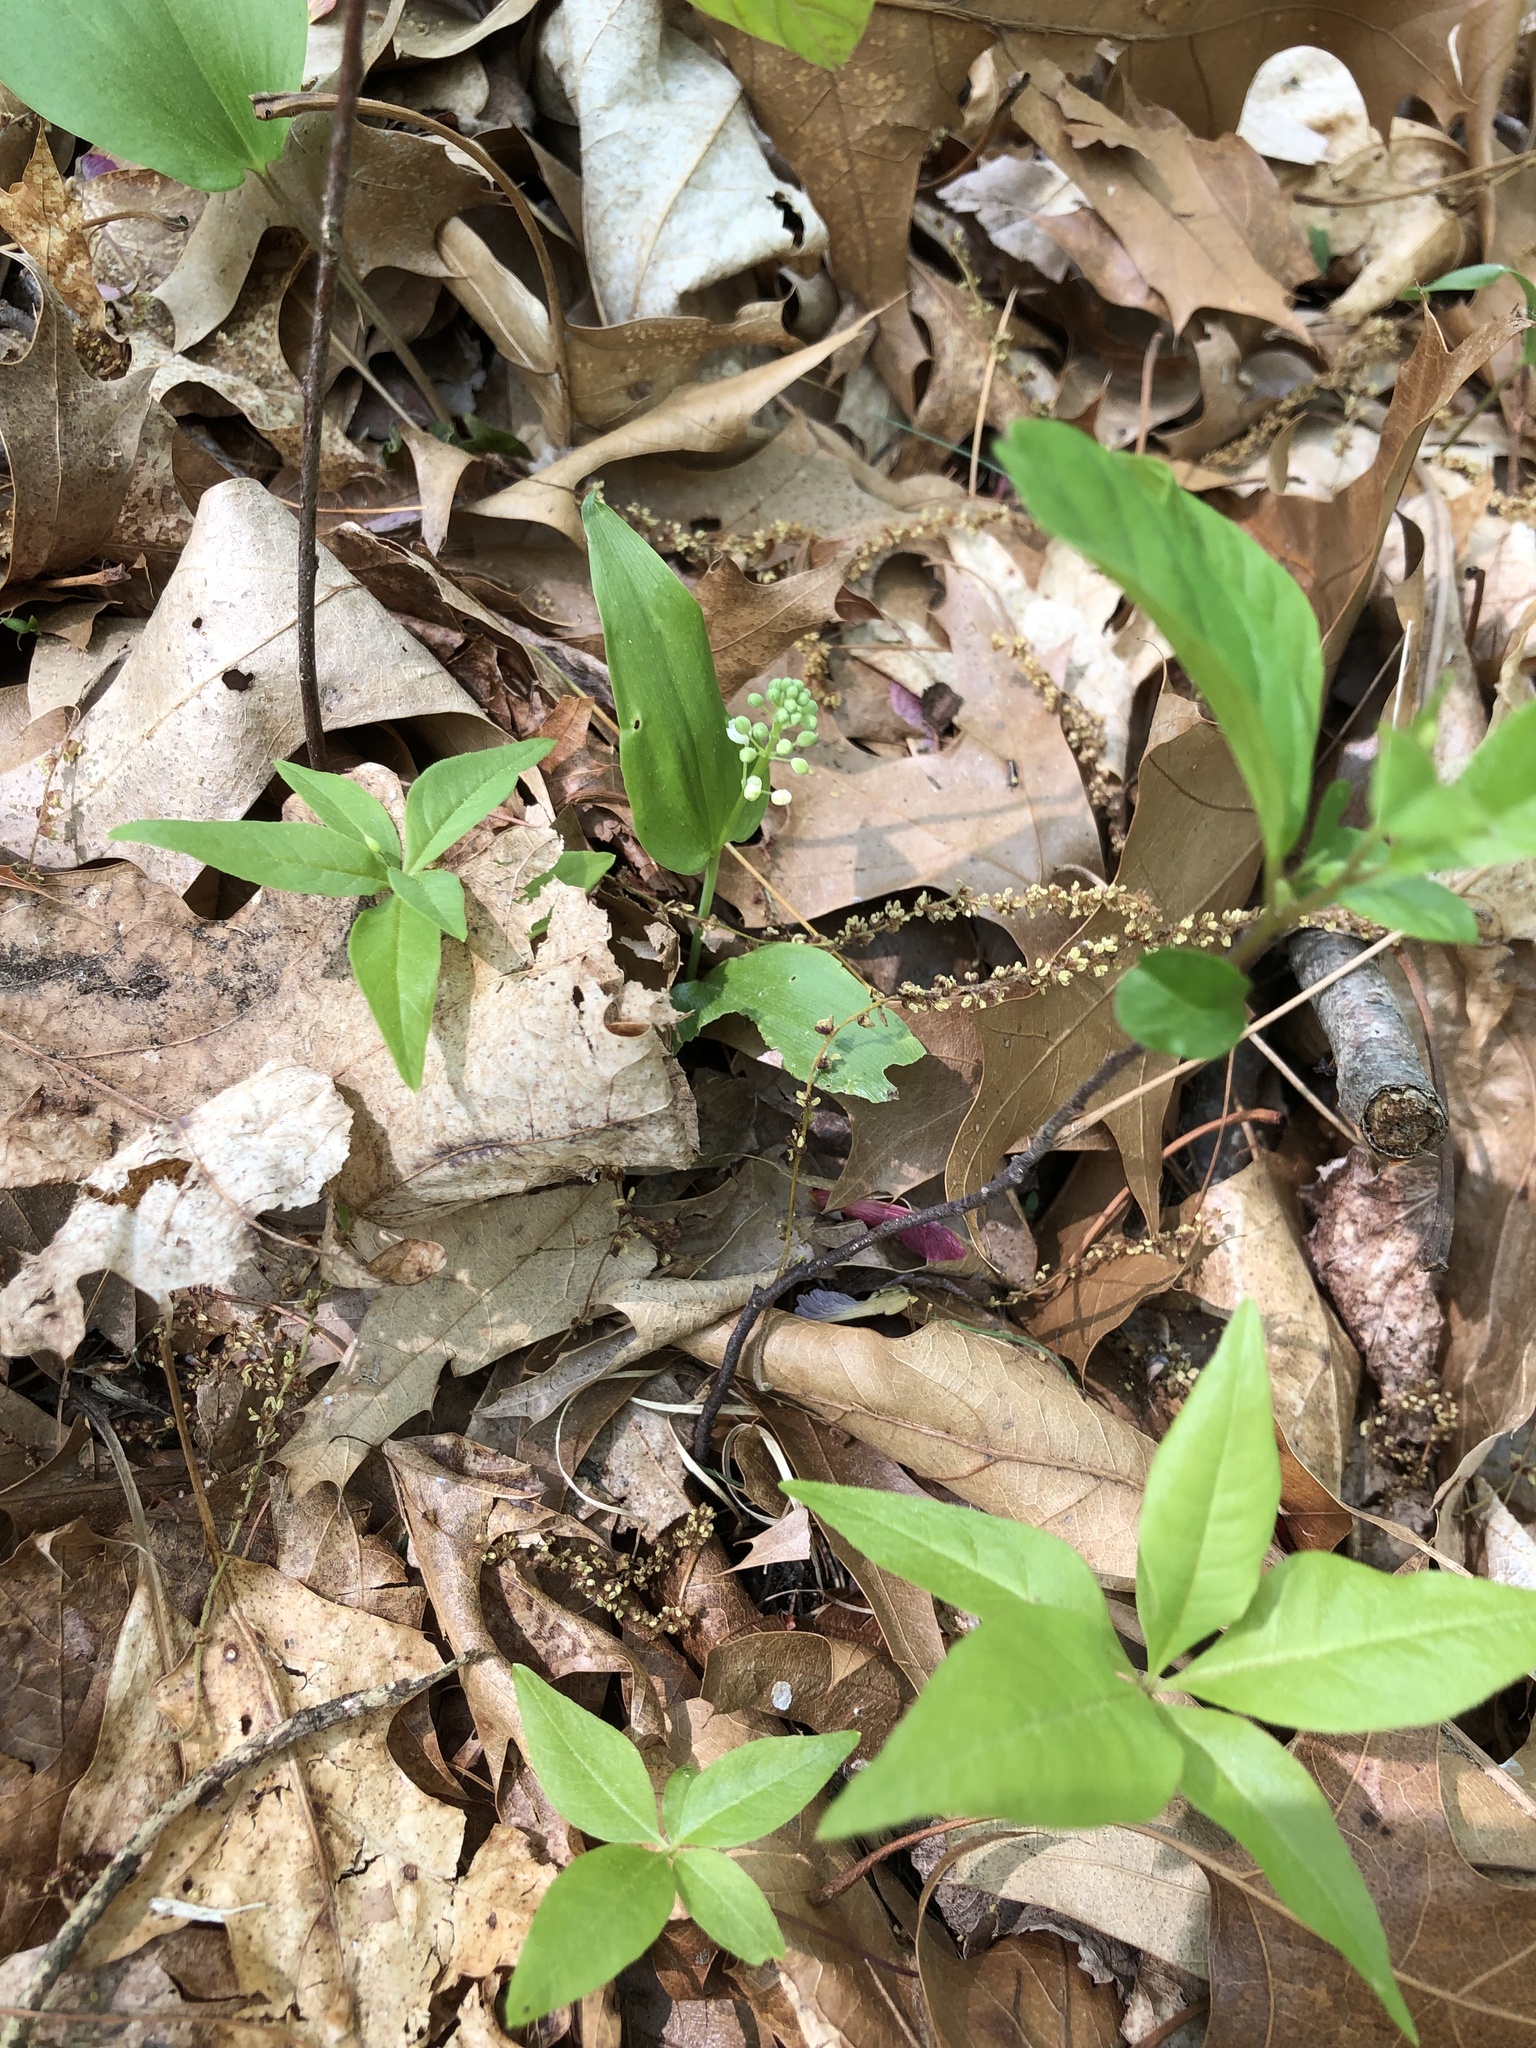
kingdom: Plantae
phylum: Tracheophyta
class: Liliopsida
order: Asparagales
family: Asparagaceae
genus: Maianthemum
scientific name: Maianthemum canadense
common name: False lily-of-the-valley
